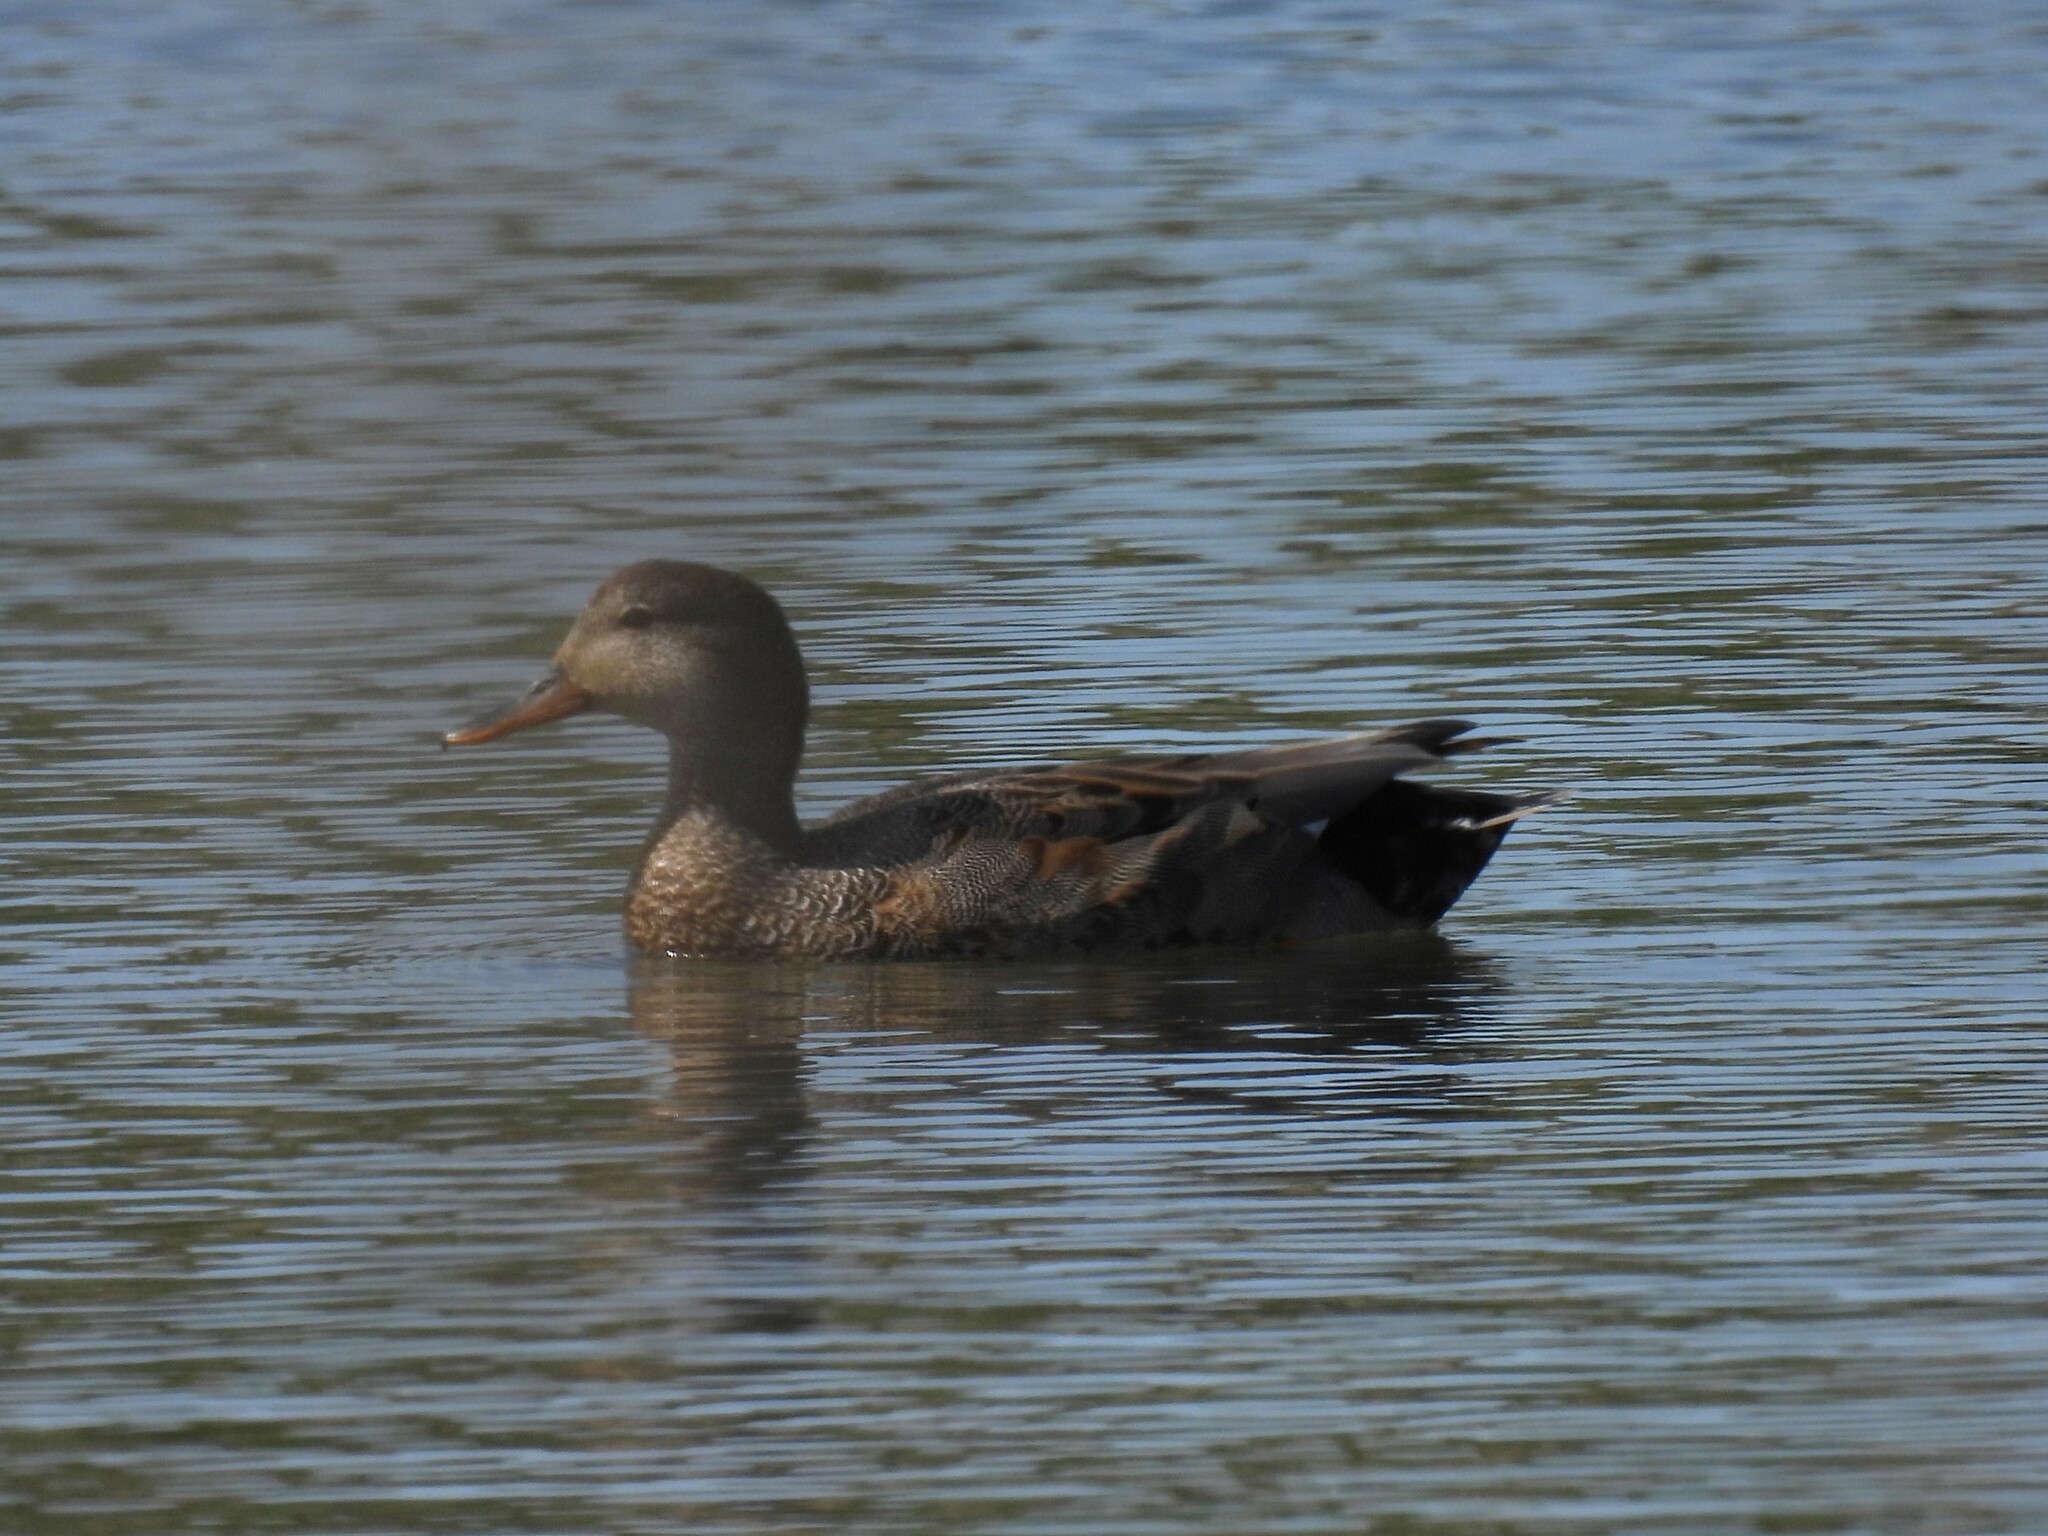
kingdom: Animalia
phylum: Chordata
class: Aves
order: Anseriformes
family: Anatidae
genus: Mareca
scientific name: Mareca strepera
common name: Gadwall
